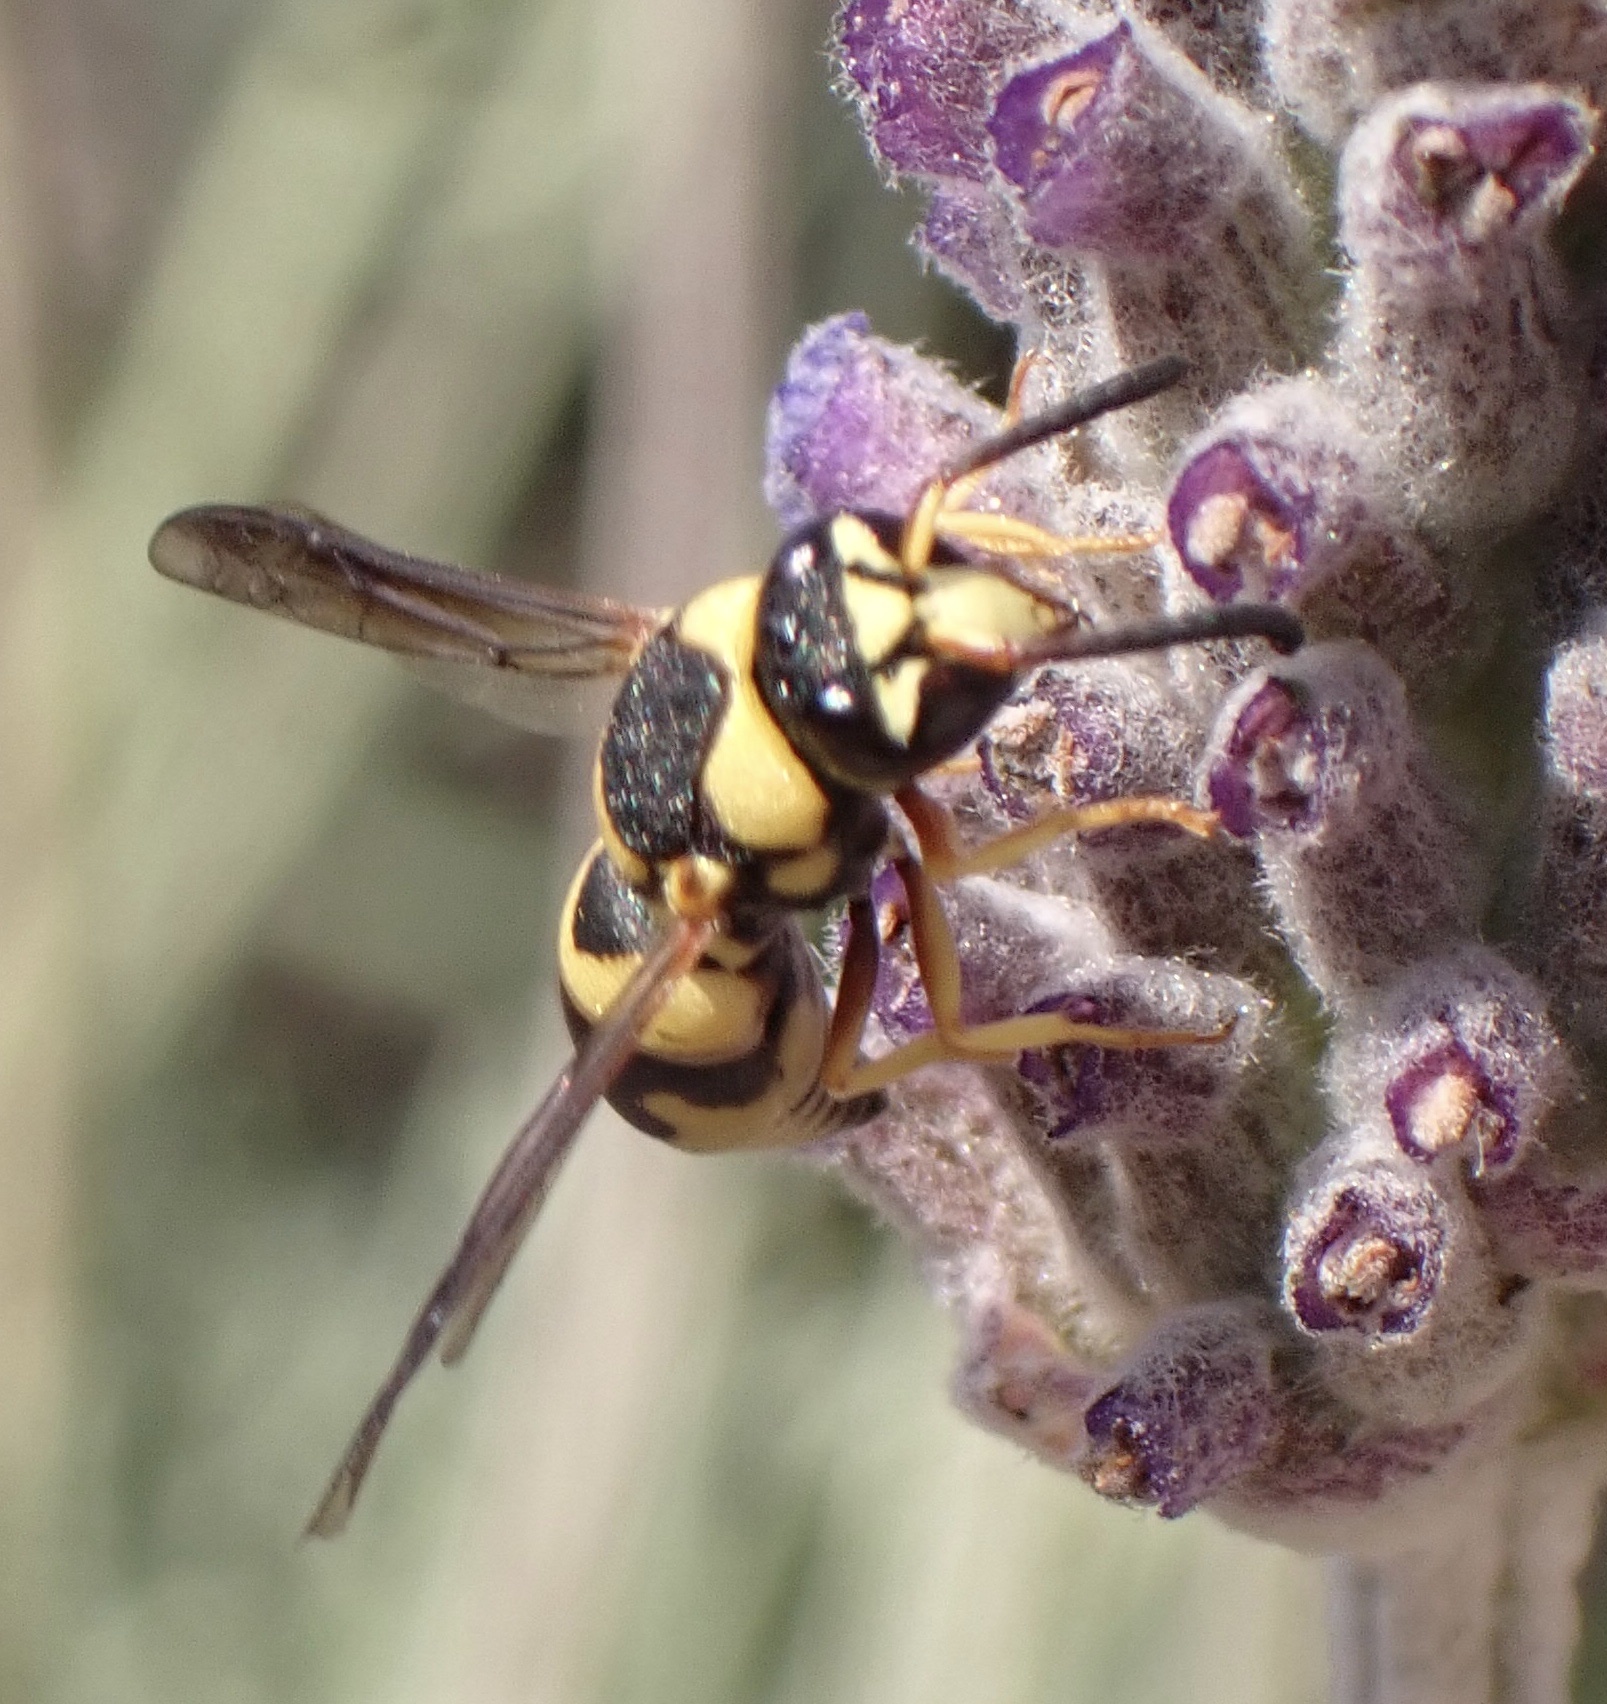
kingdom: Animalia
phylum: Arthropoda
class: Insecta
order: Hymenoptera
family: Eumenidae
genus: Euodynerus
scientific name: Euodynerus variegatus
